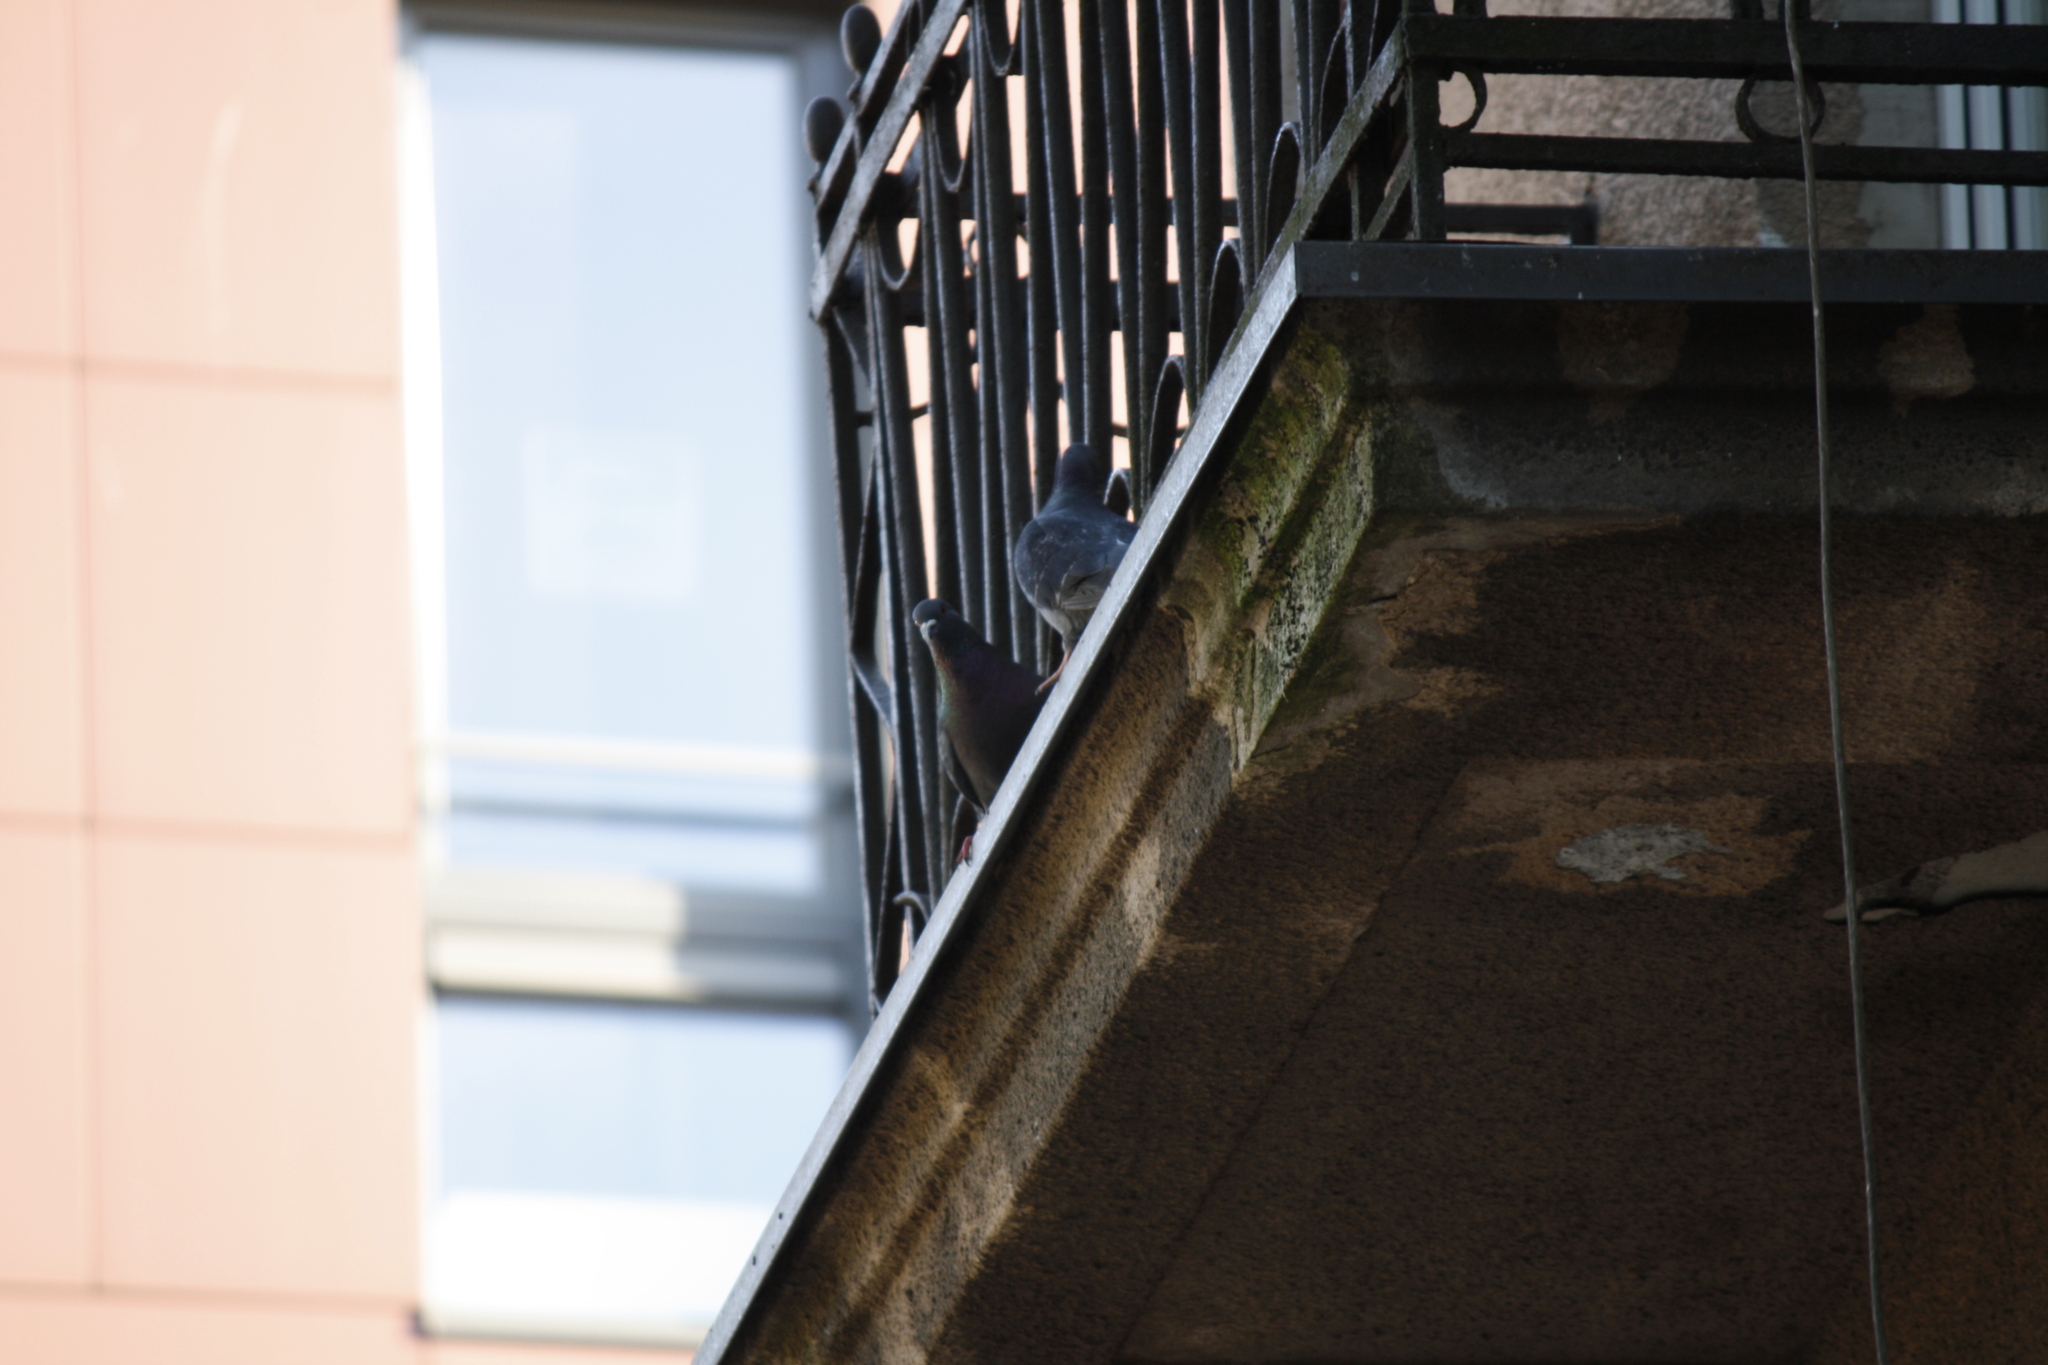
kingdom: Animalia
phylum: Chordata
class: Aves
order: Columbiformes
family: Columbidae
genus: Columba
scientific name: Columba livia
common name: Rock pigeon
